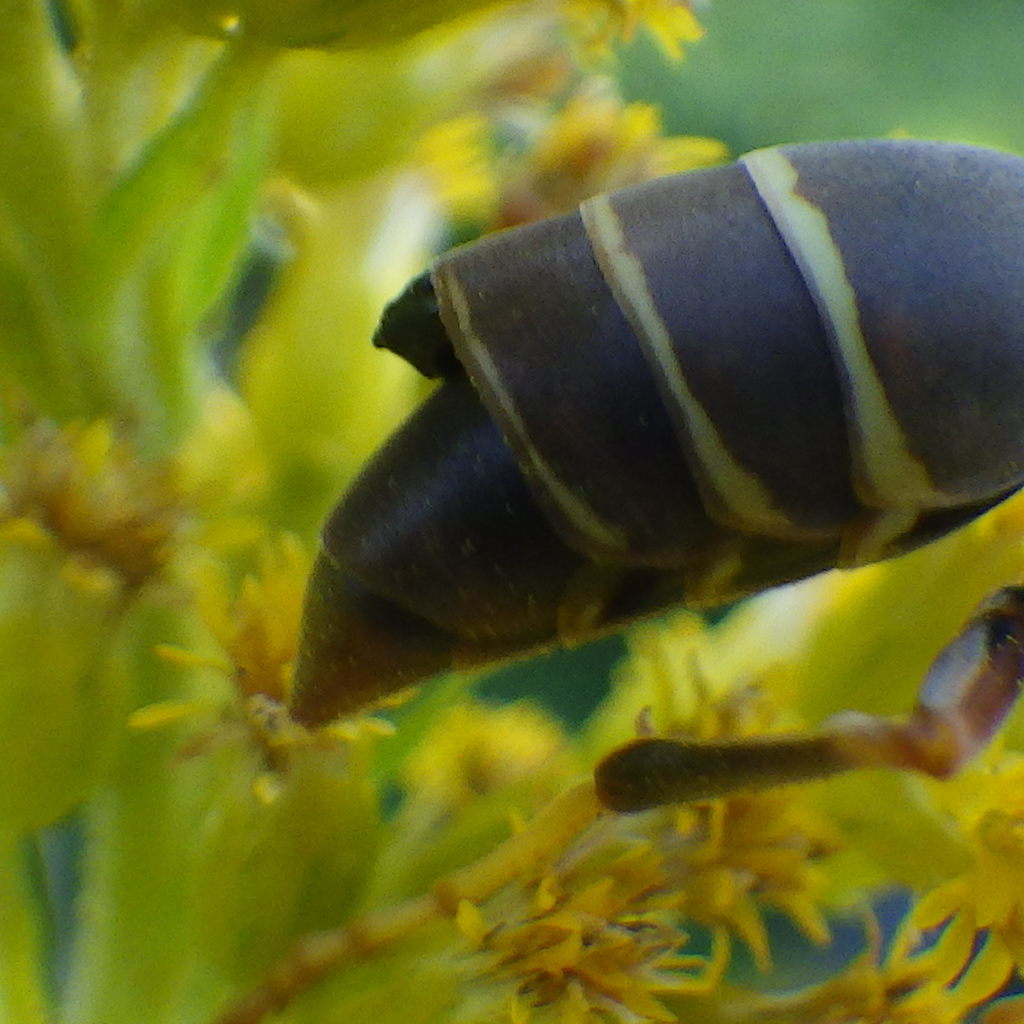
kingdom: Animalia
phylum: Arthropoda
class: Insecta
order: Strepsiptera
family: Xenidae
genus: Xenos
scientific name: Xenos pecki
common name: Twisted wing parasite
